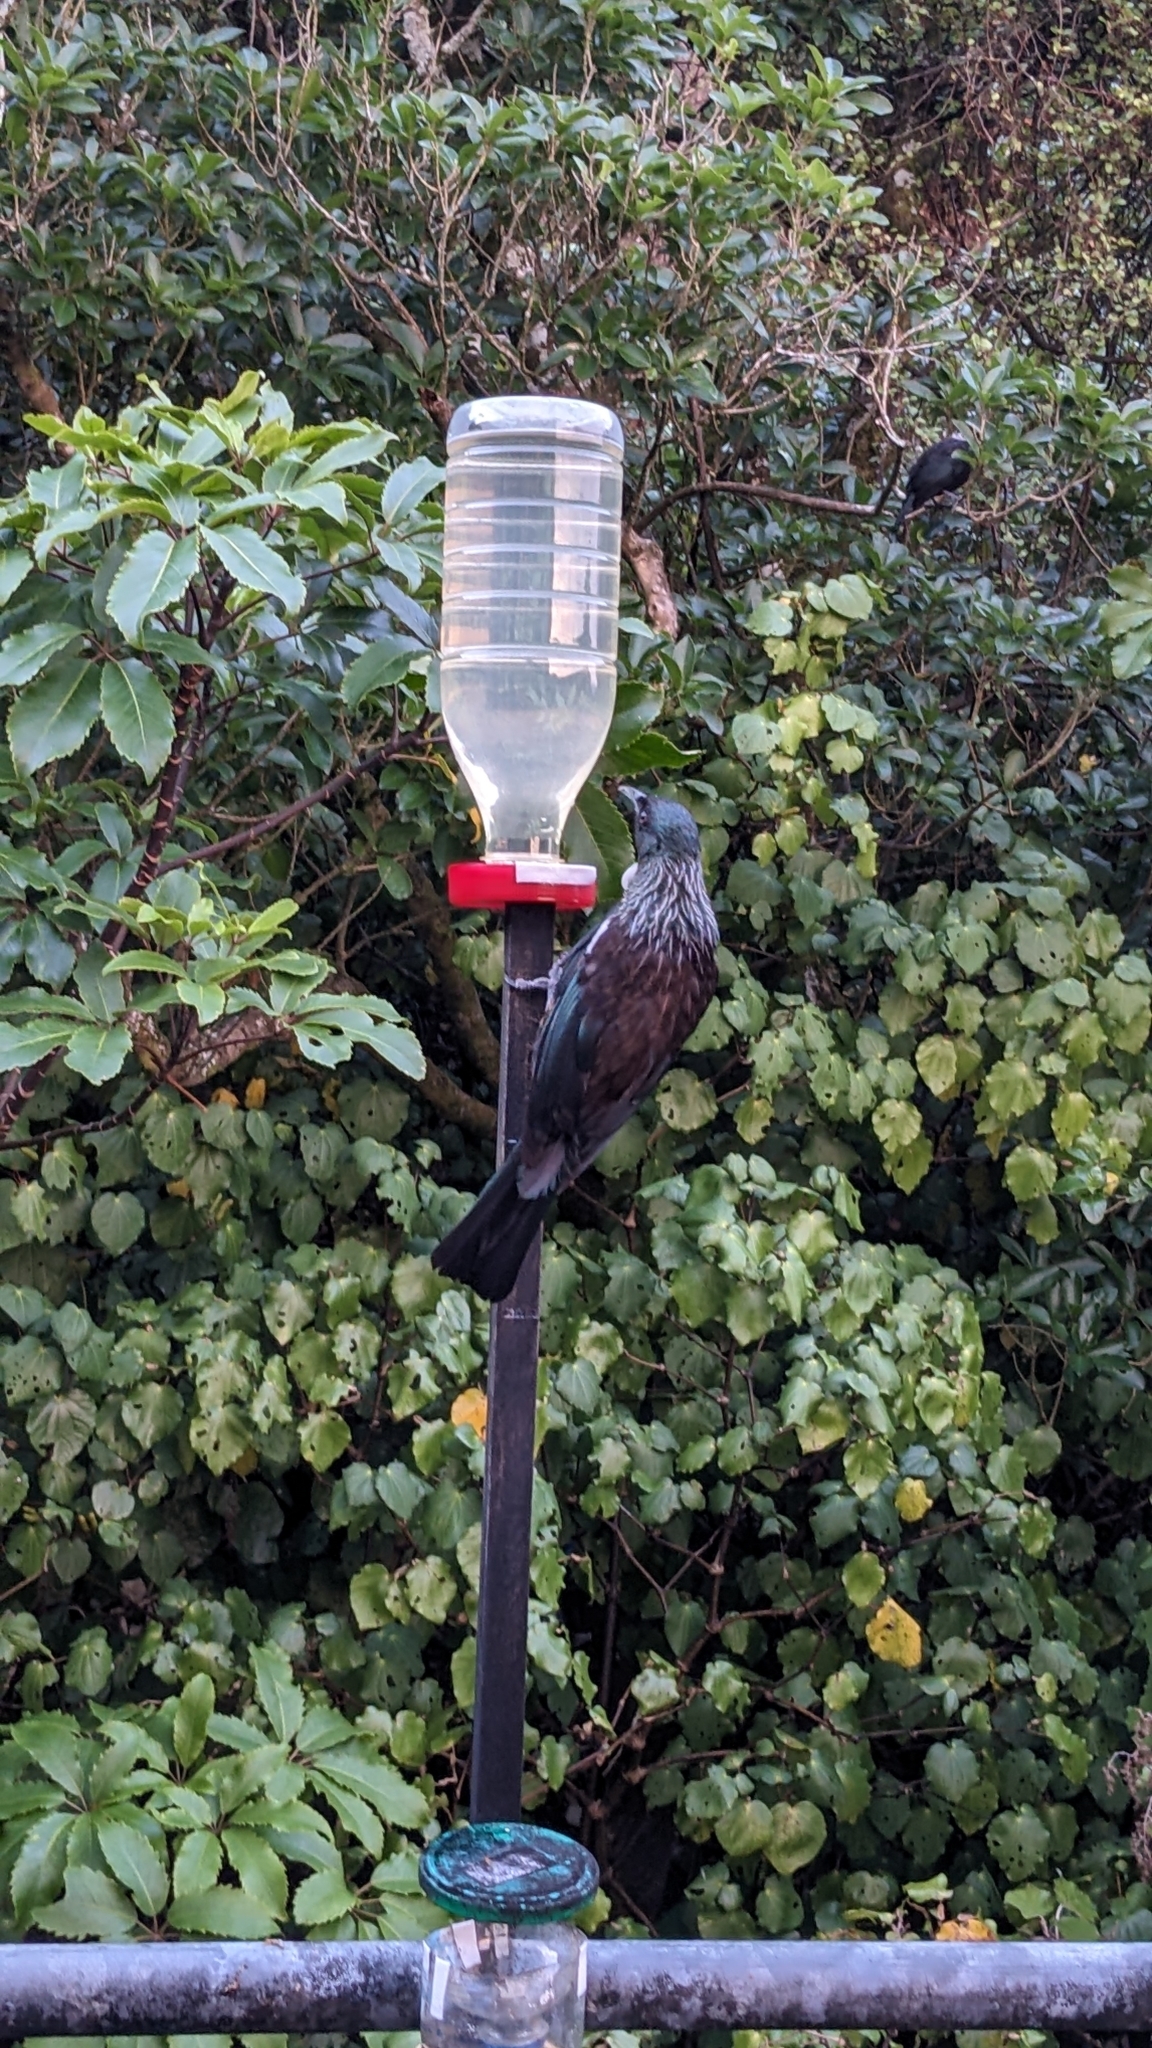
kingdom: Animalia
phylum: Chordata
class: Aves
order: Passeriformes
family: Meliphagidae
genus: Prosthemadera
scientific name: Prosthemadera novaeseelandiae
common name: Tui
